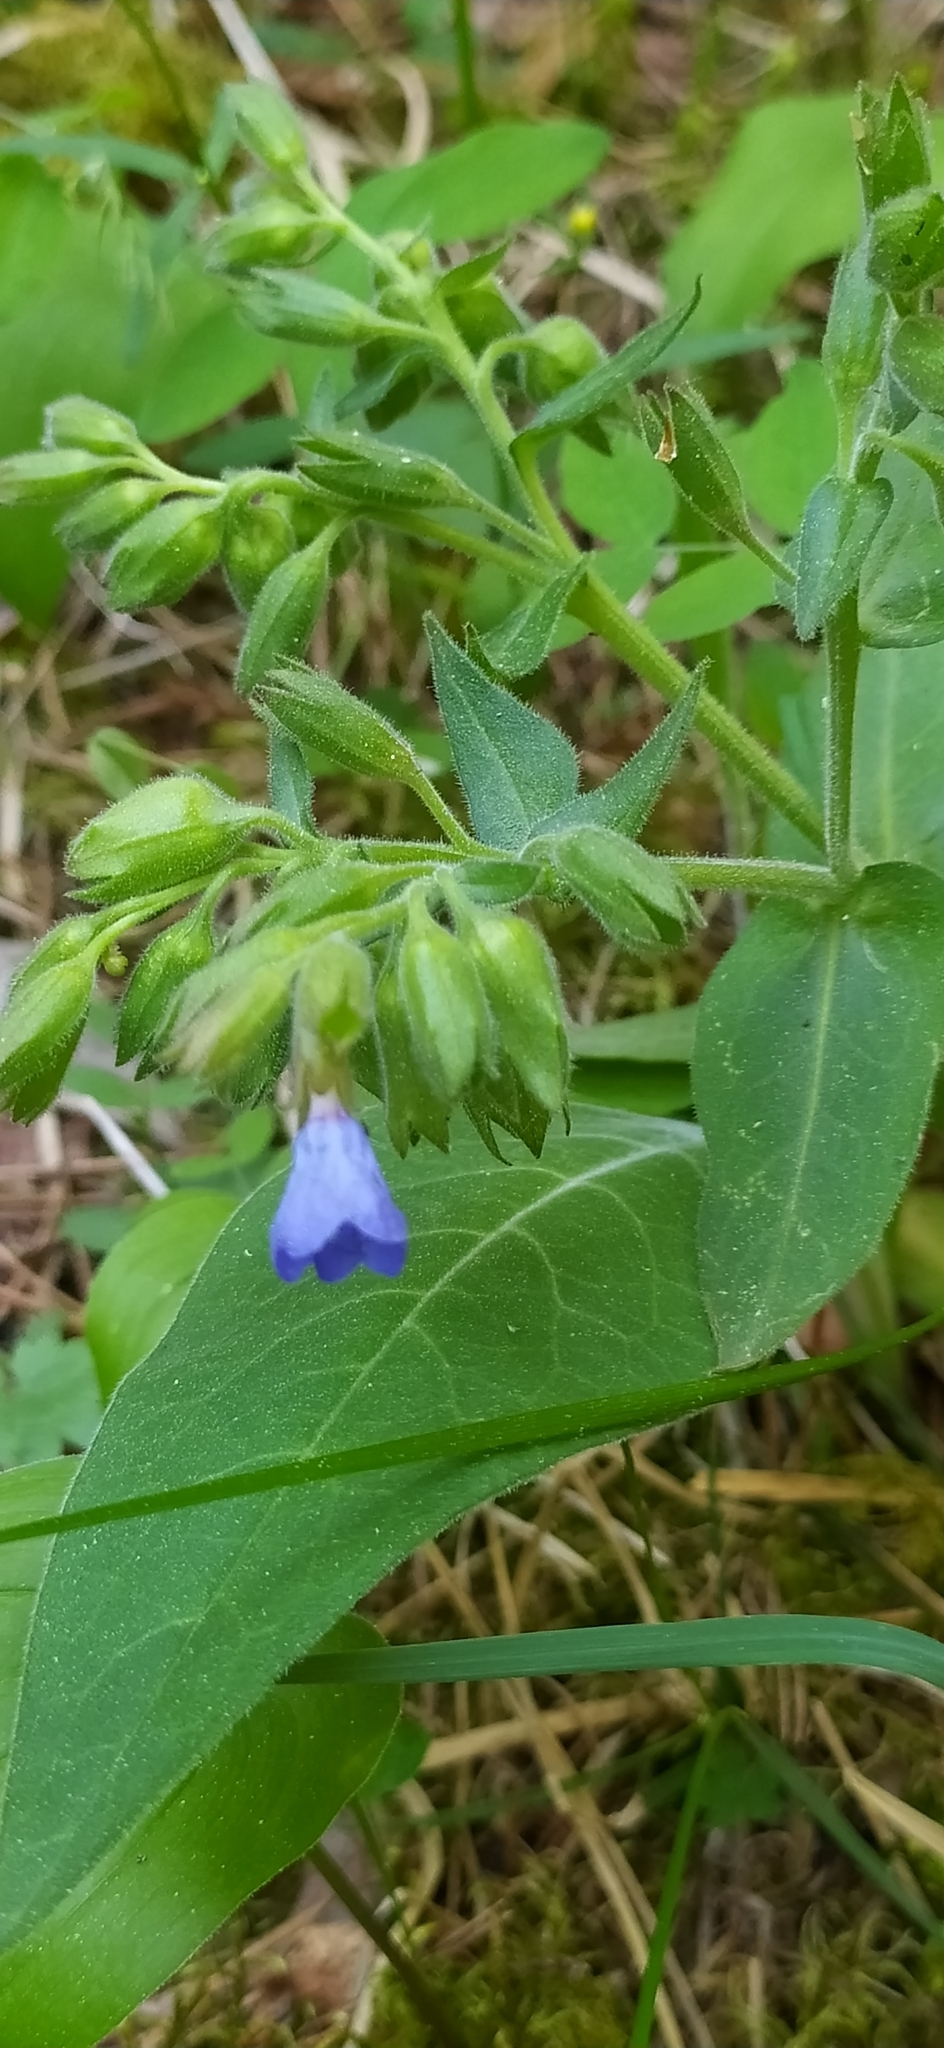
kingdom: Plantae
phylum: Tracheophyta
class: Magnoliopsida
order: Boraginales
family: Boraginaceae
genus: Pulmonaria
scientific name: Pulmonaria mollis
